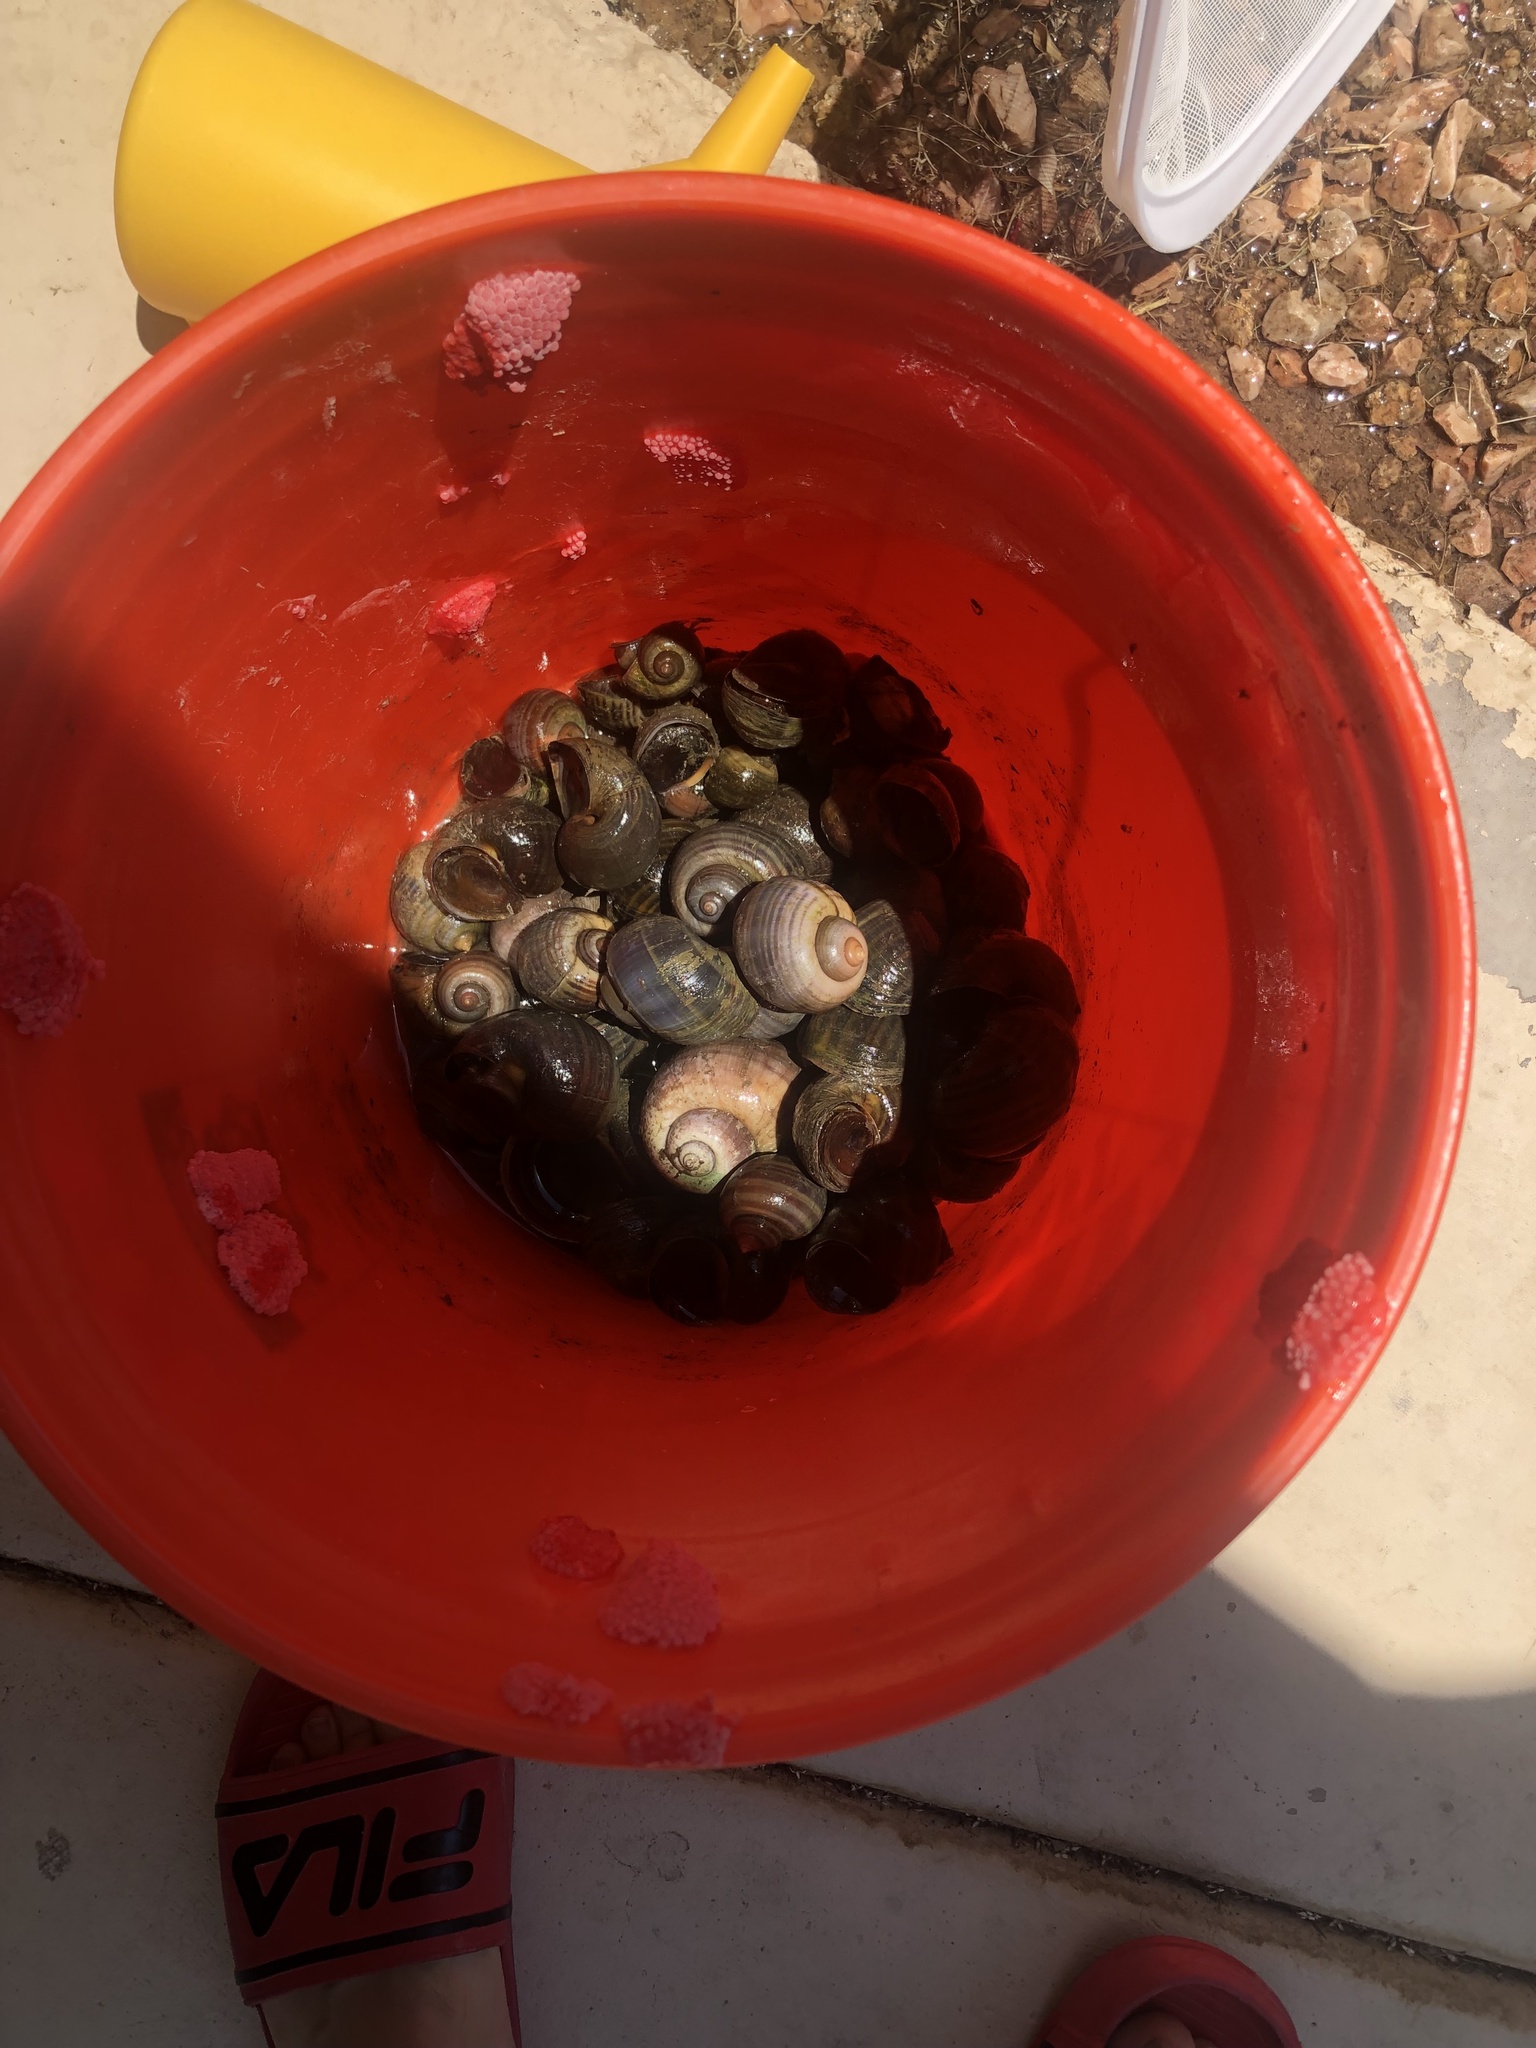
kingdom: Animalia
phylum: Mollusca
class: Gastropoda
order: Architaenioglossa
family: Ampullariidae
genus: Pomacea
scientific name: Pomacea canaliculata
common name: Channeled applesnail
